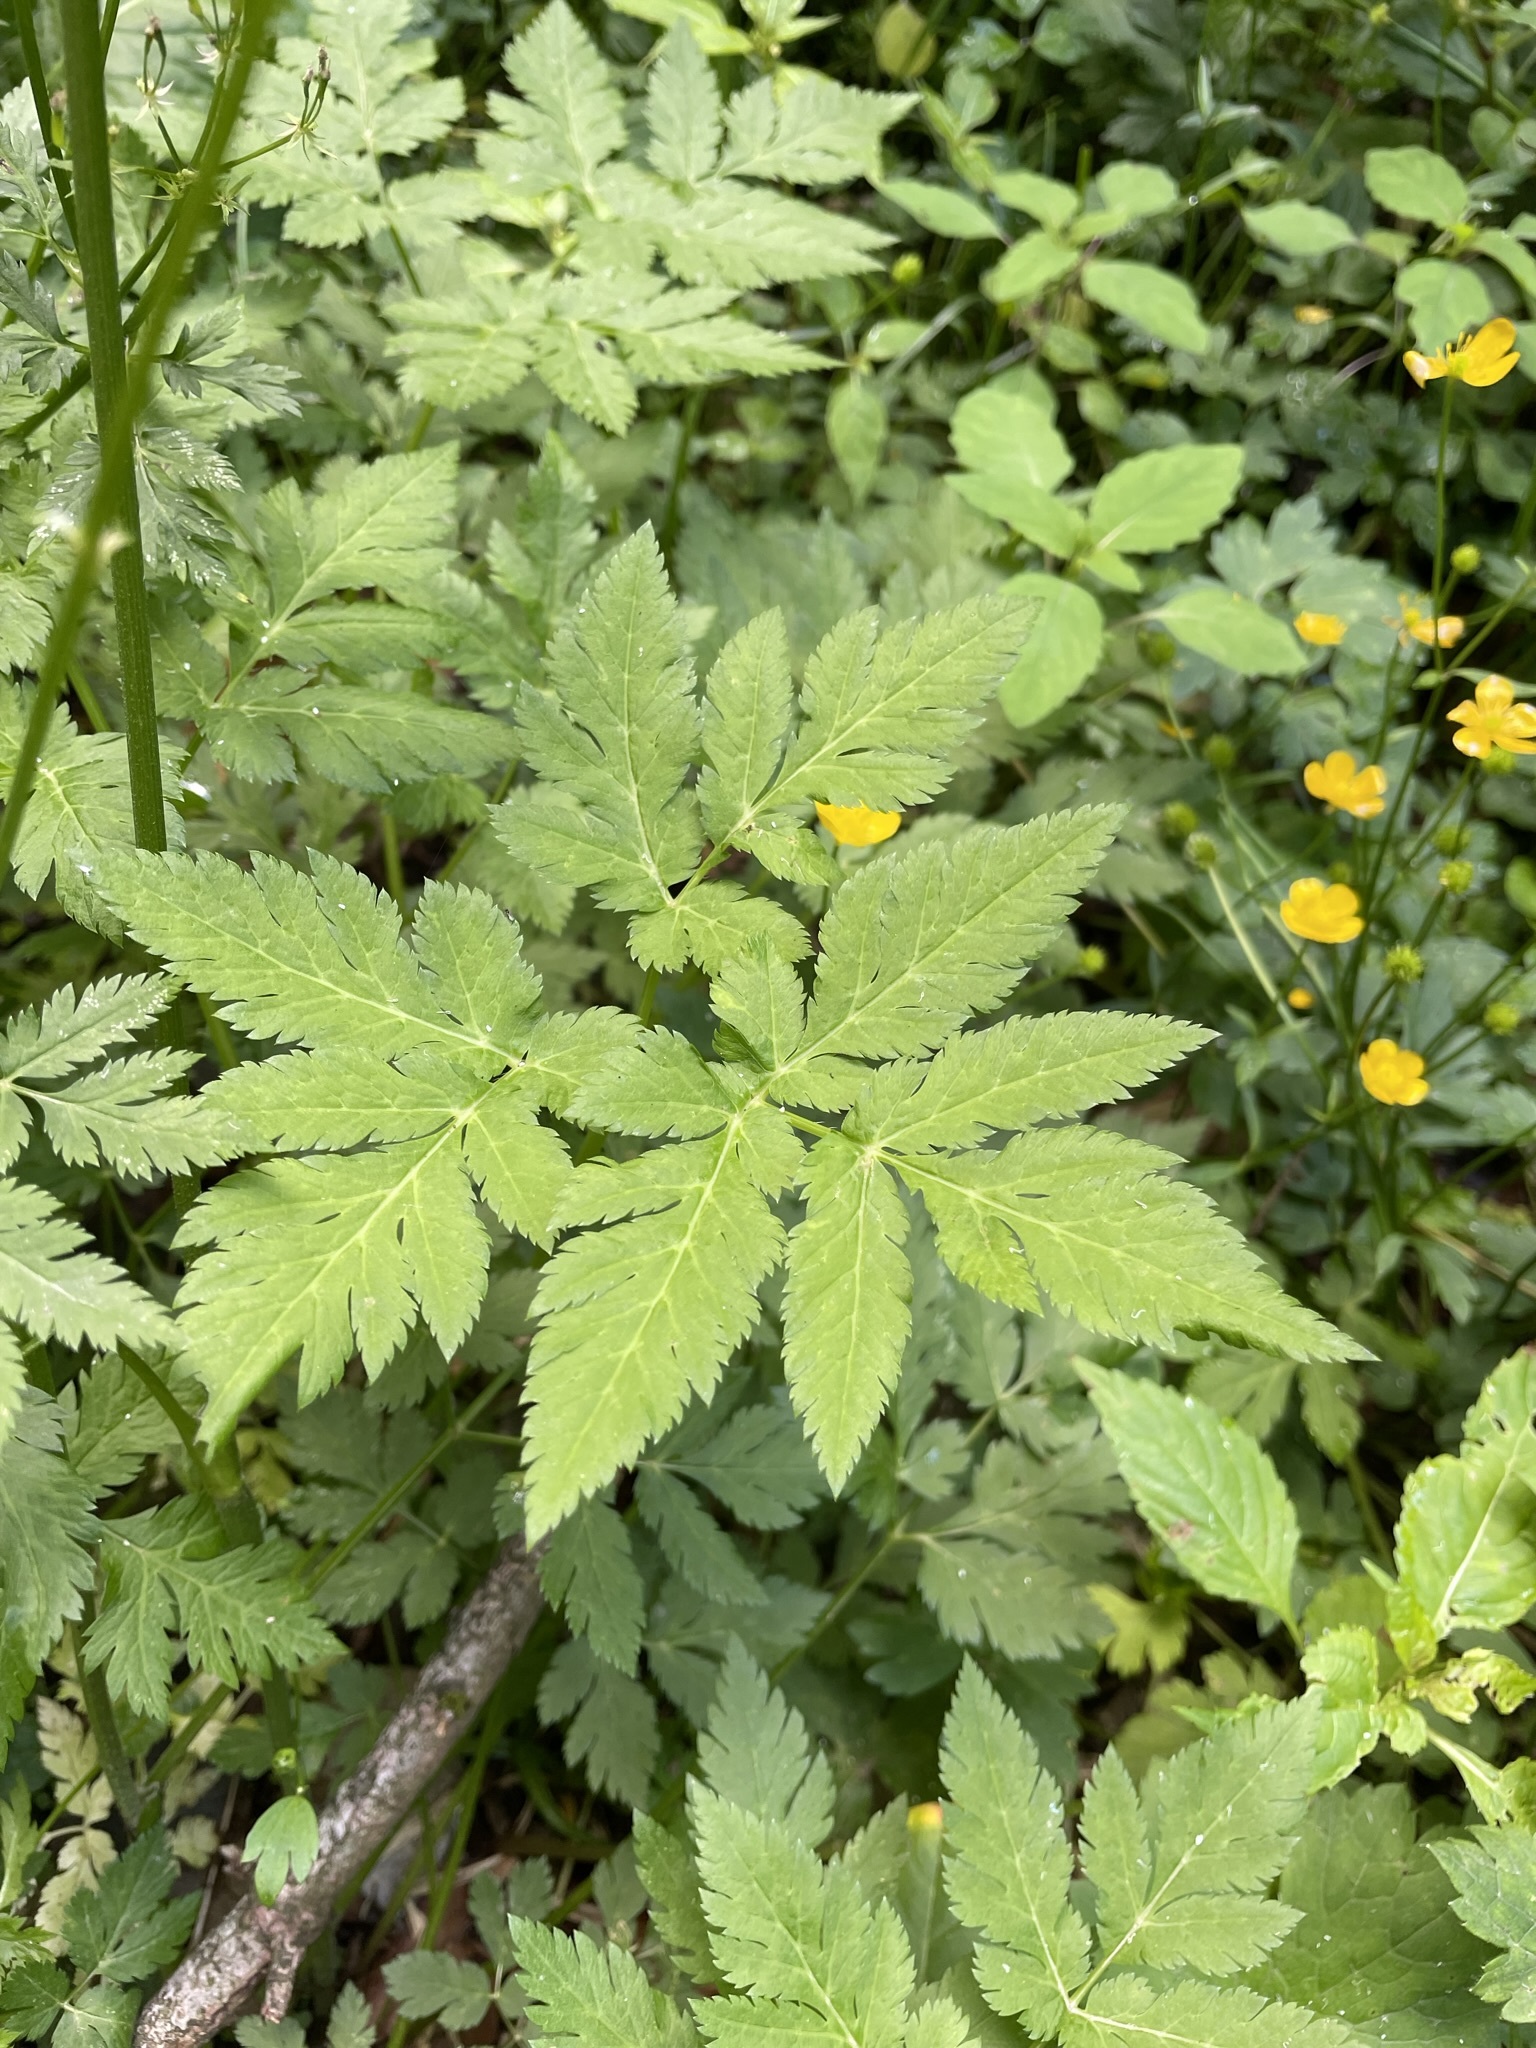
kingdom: Plantae
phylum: Tracheophyta
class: Magnoliopsida
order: Apiales
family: Apiaceae
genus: Chaerophyllum
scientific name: Chaerophyllum hirsutum
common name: Hairy chervil
